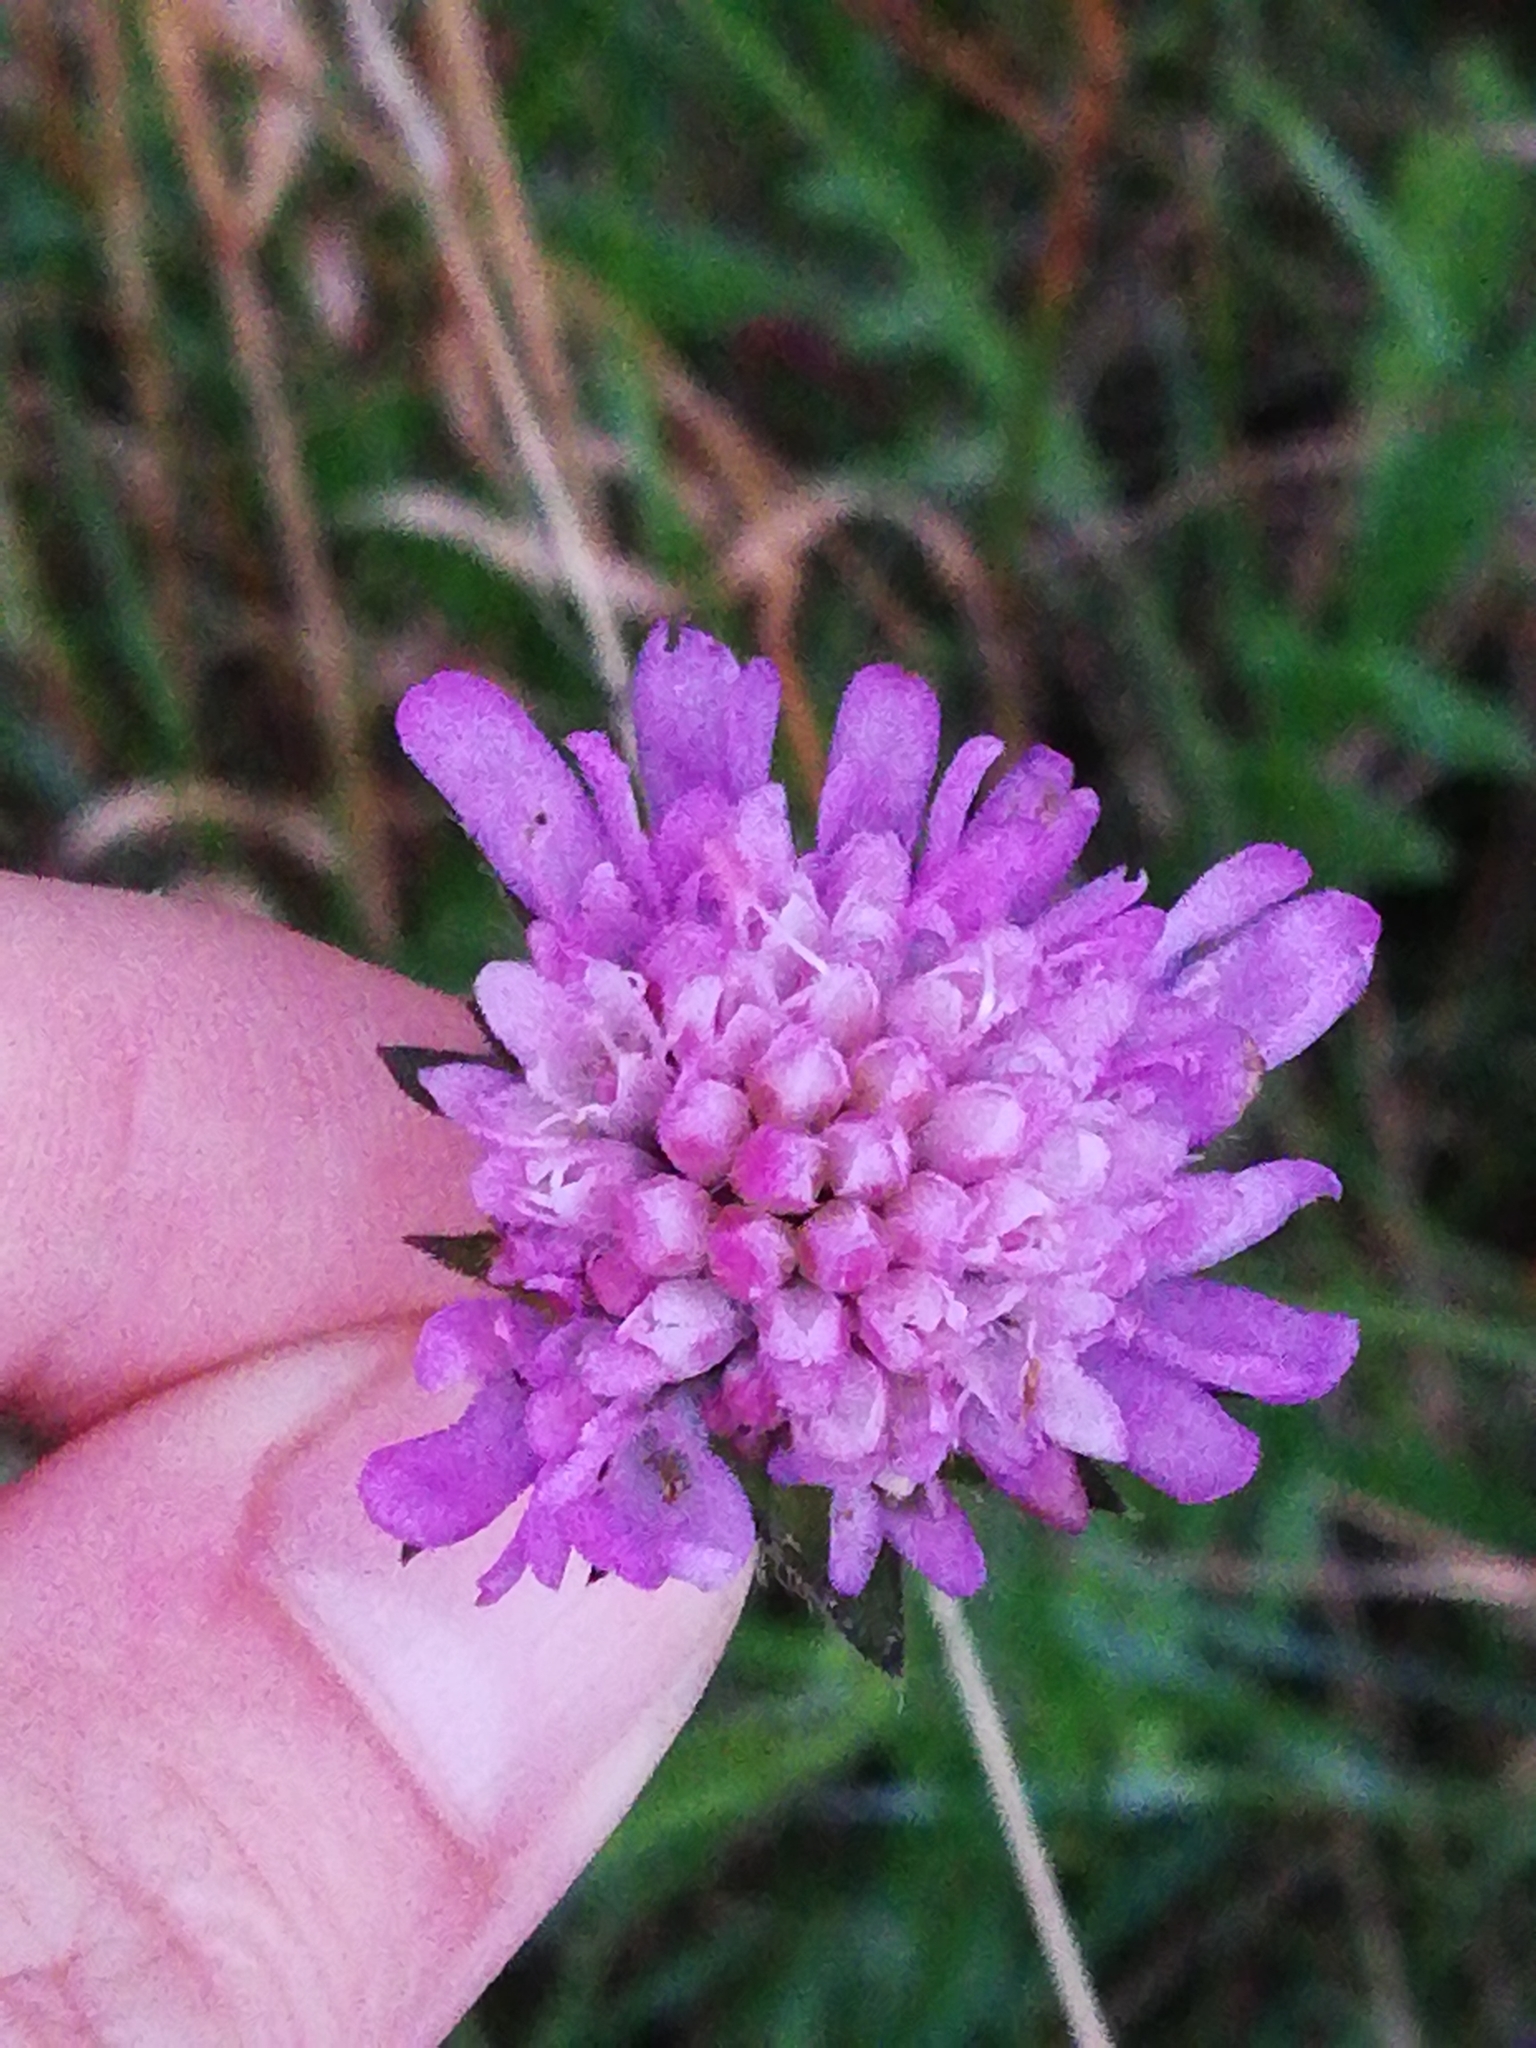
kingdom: Plantae
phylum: Tracheophyta
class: Magnoliopsida
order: Dipsacales
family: Caprifoliaceae
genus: Knautia
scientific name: Knautia arvensis
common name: Field scabiosa
